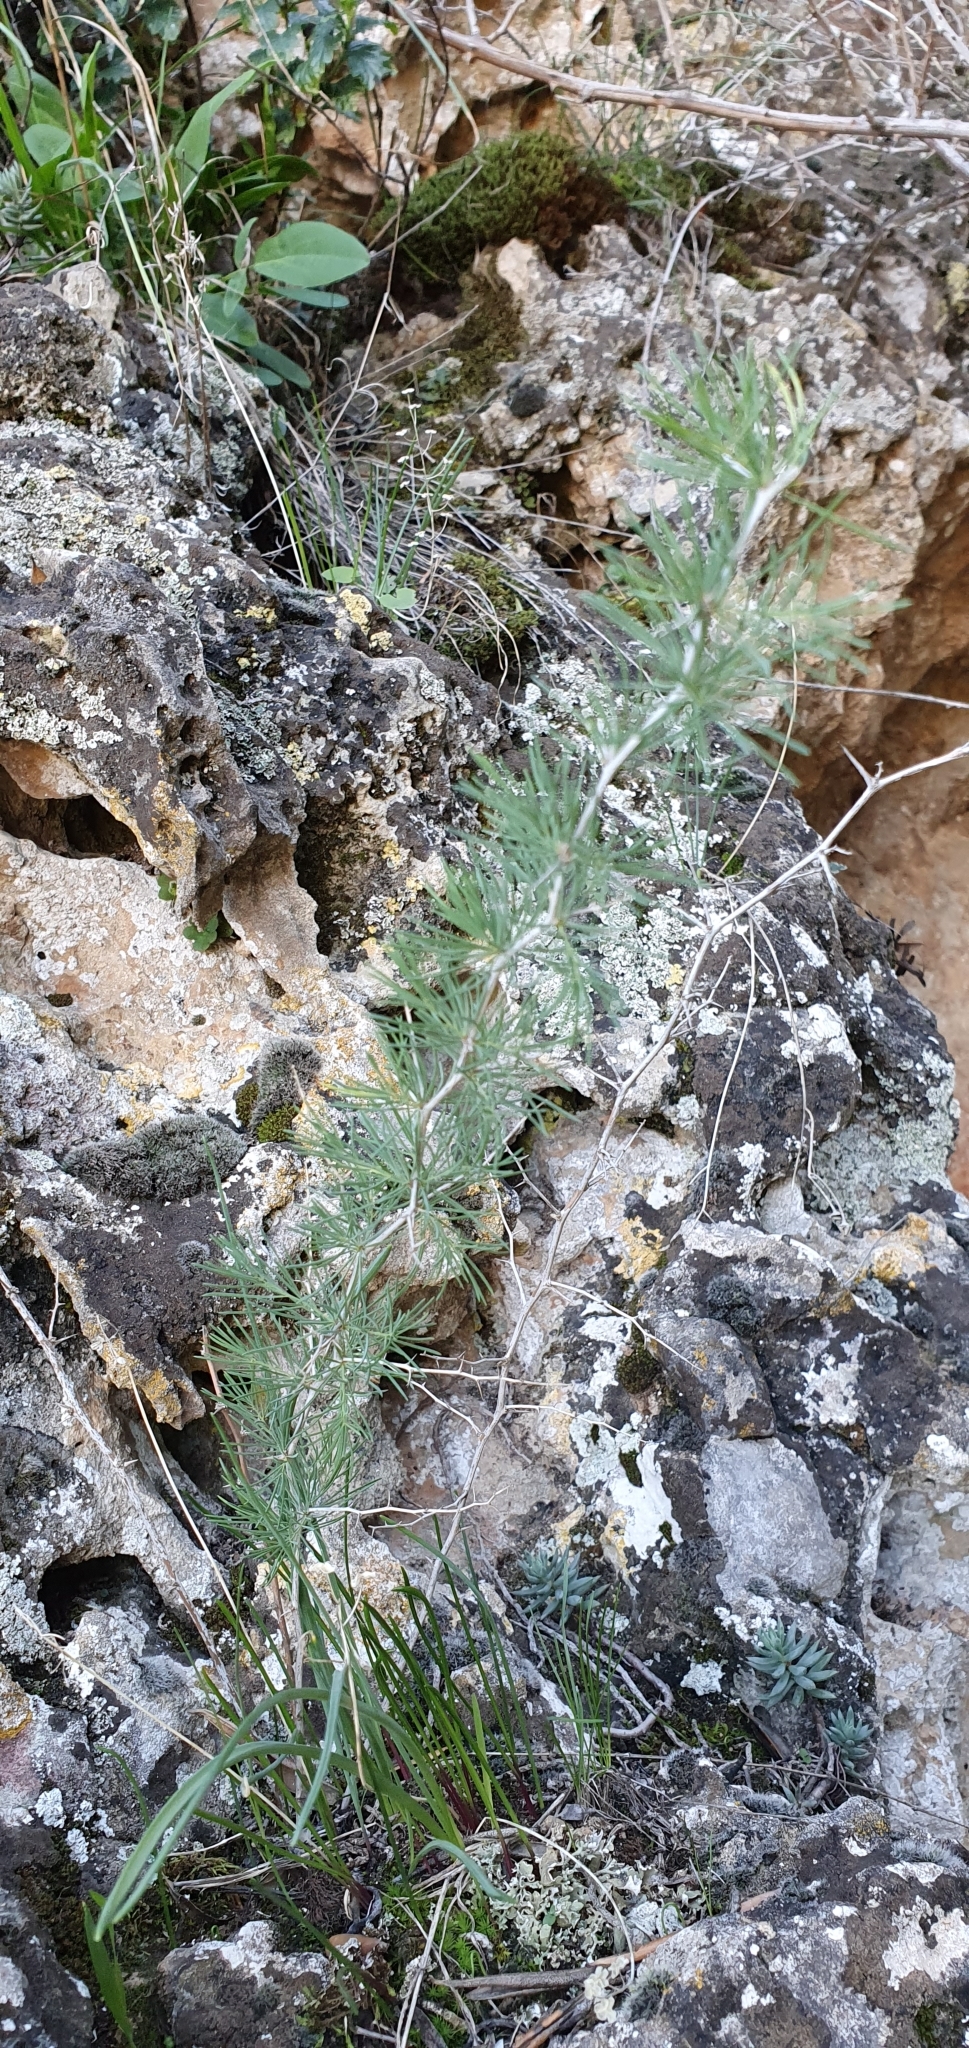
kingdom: Plantae
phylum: Tracheophyta
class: Liliopsida
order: Asparagales
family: Asparagaceae
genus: Asparagus
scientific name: Asparagus albus
